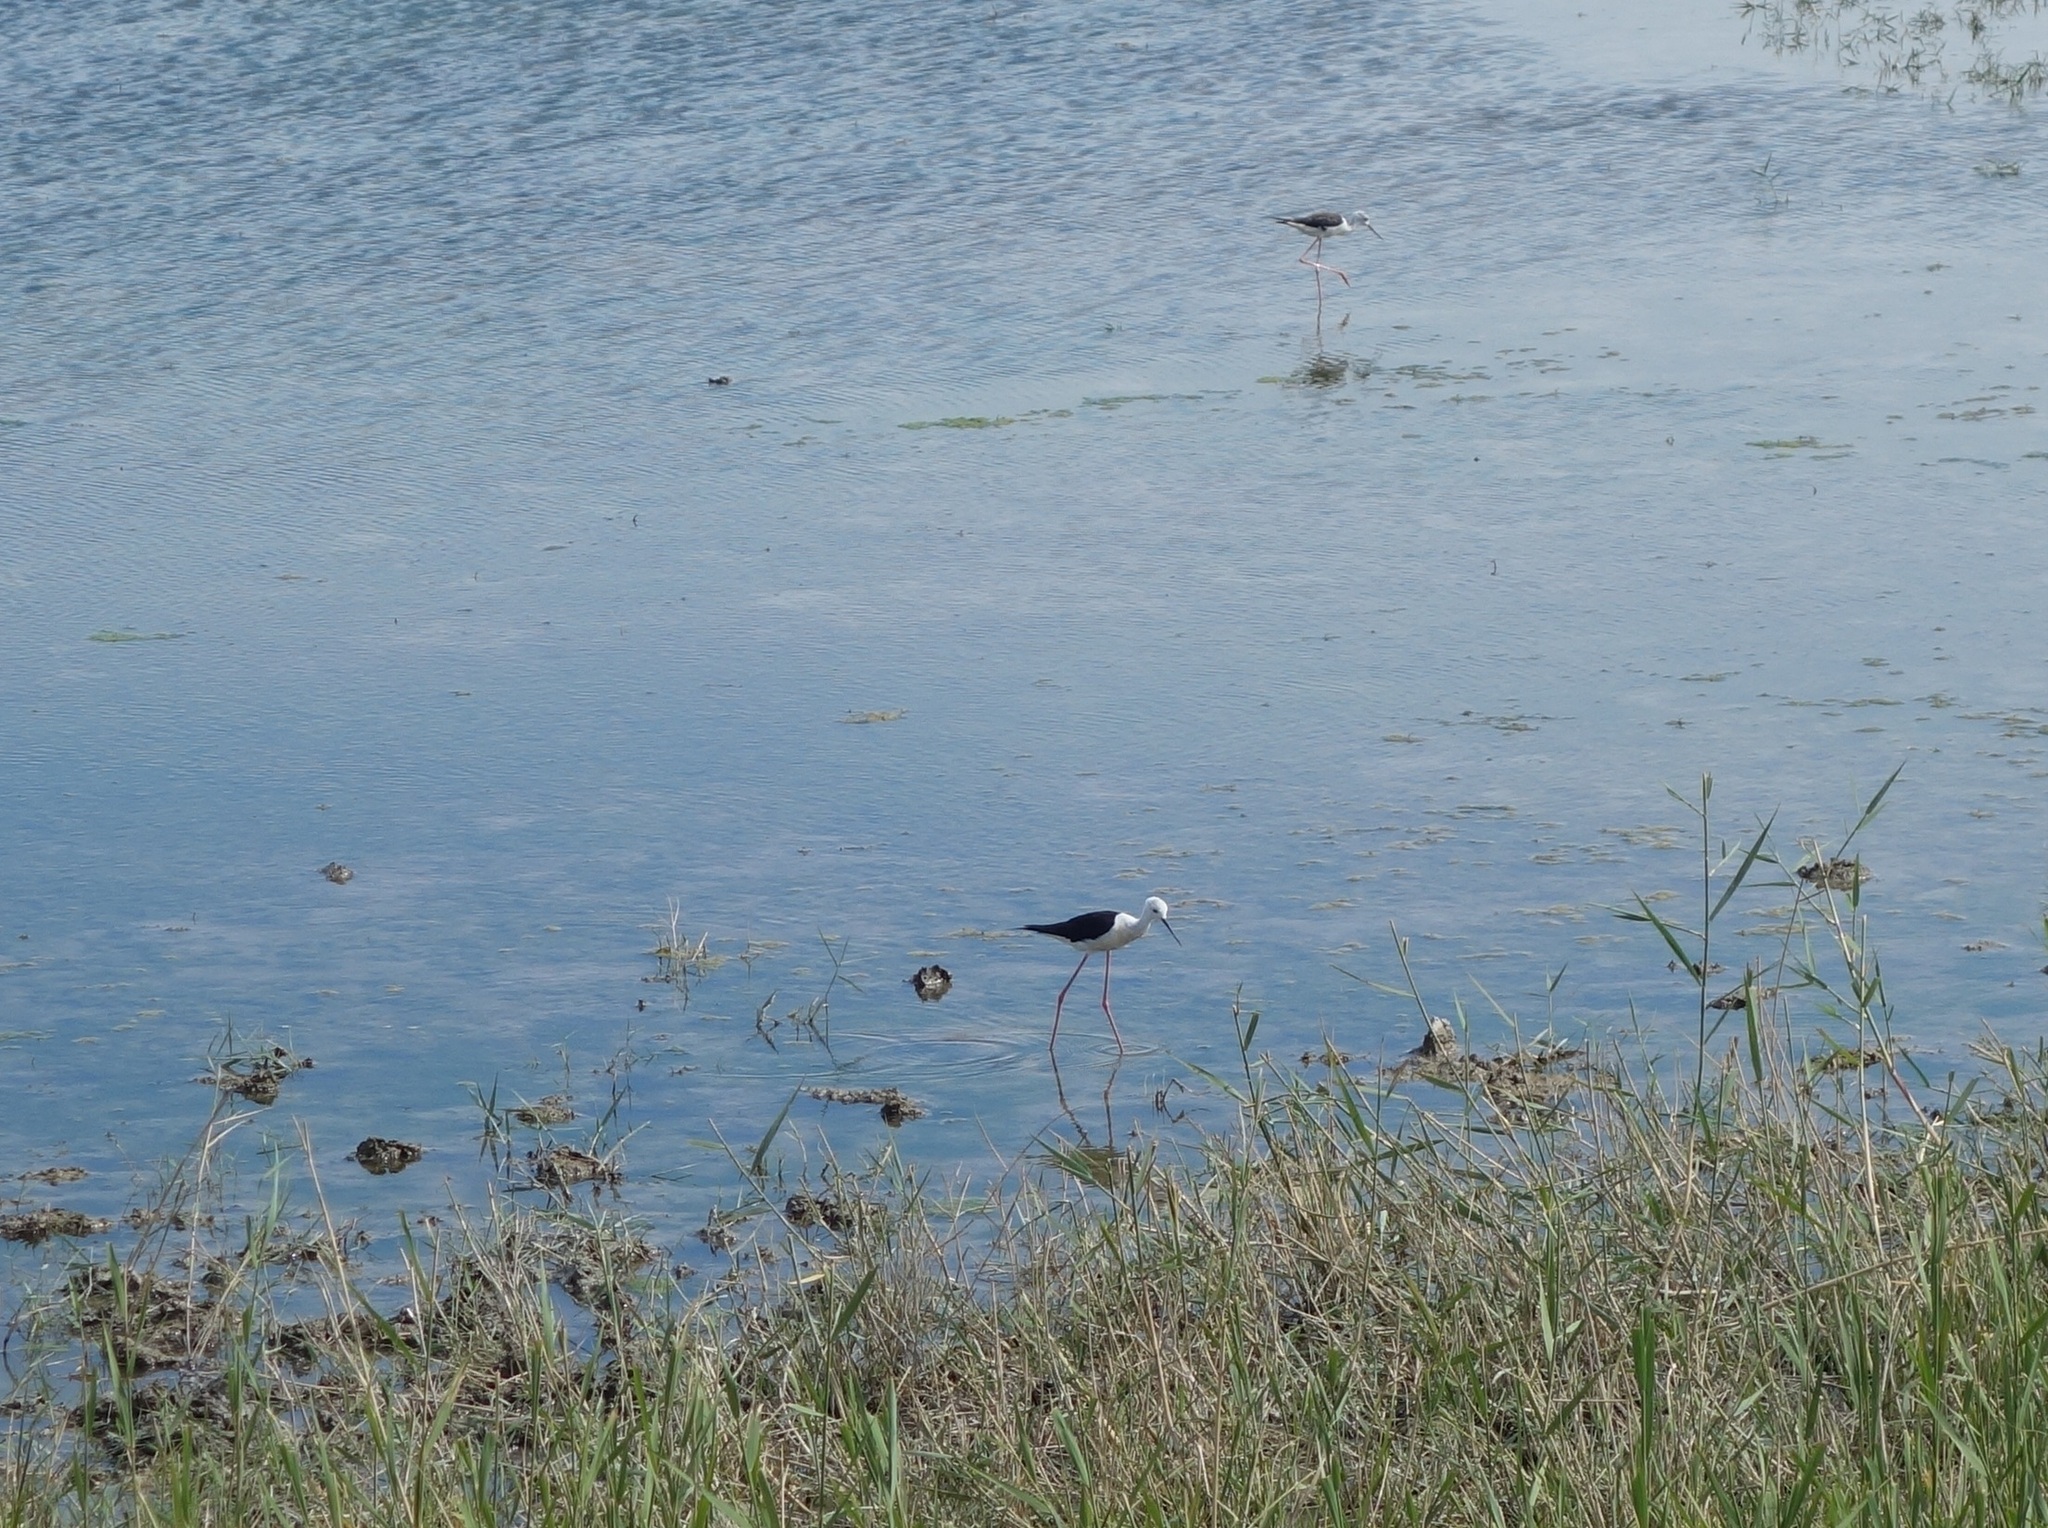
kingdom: Animalia
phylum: Chordata
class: Aves
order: Charadriiformes
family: Recurvirostridae
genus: Himantopus
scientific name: Himantopus himantopus
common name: Black-winged stilt
